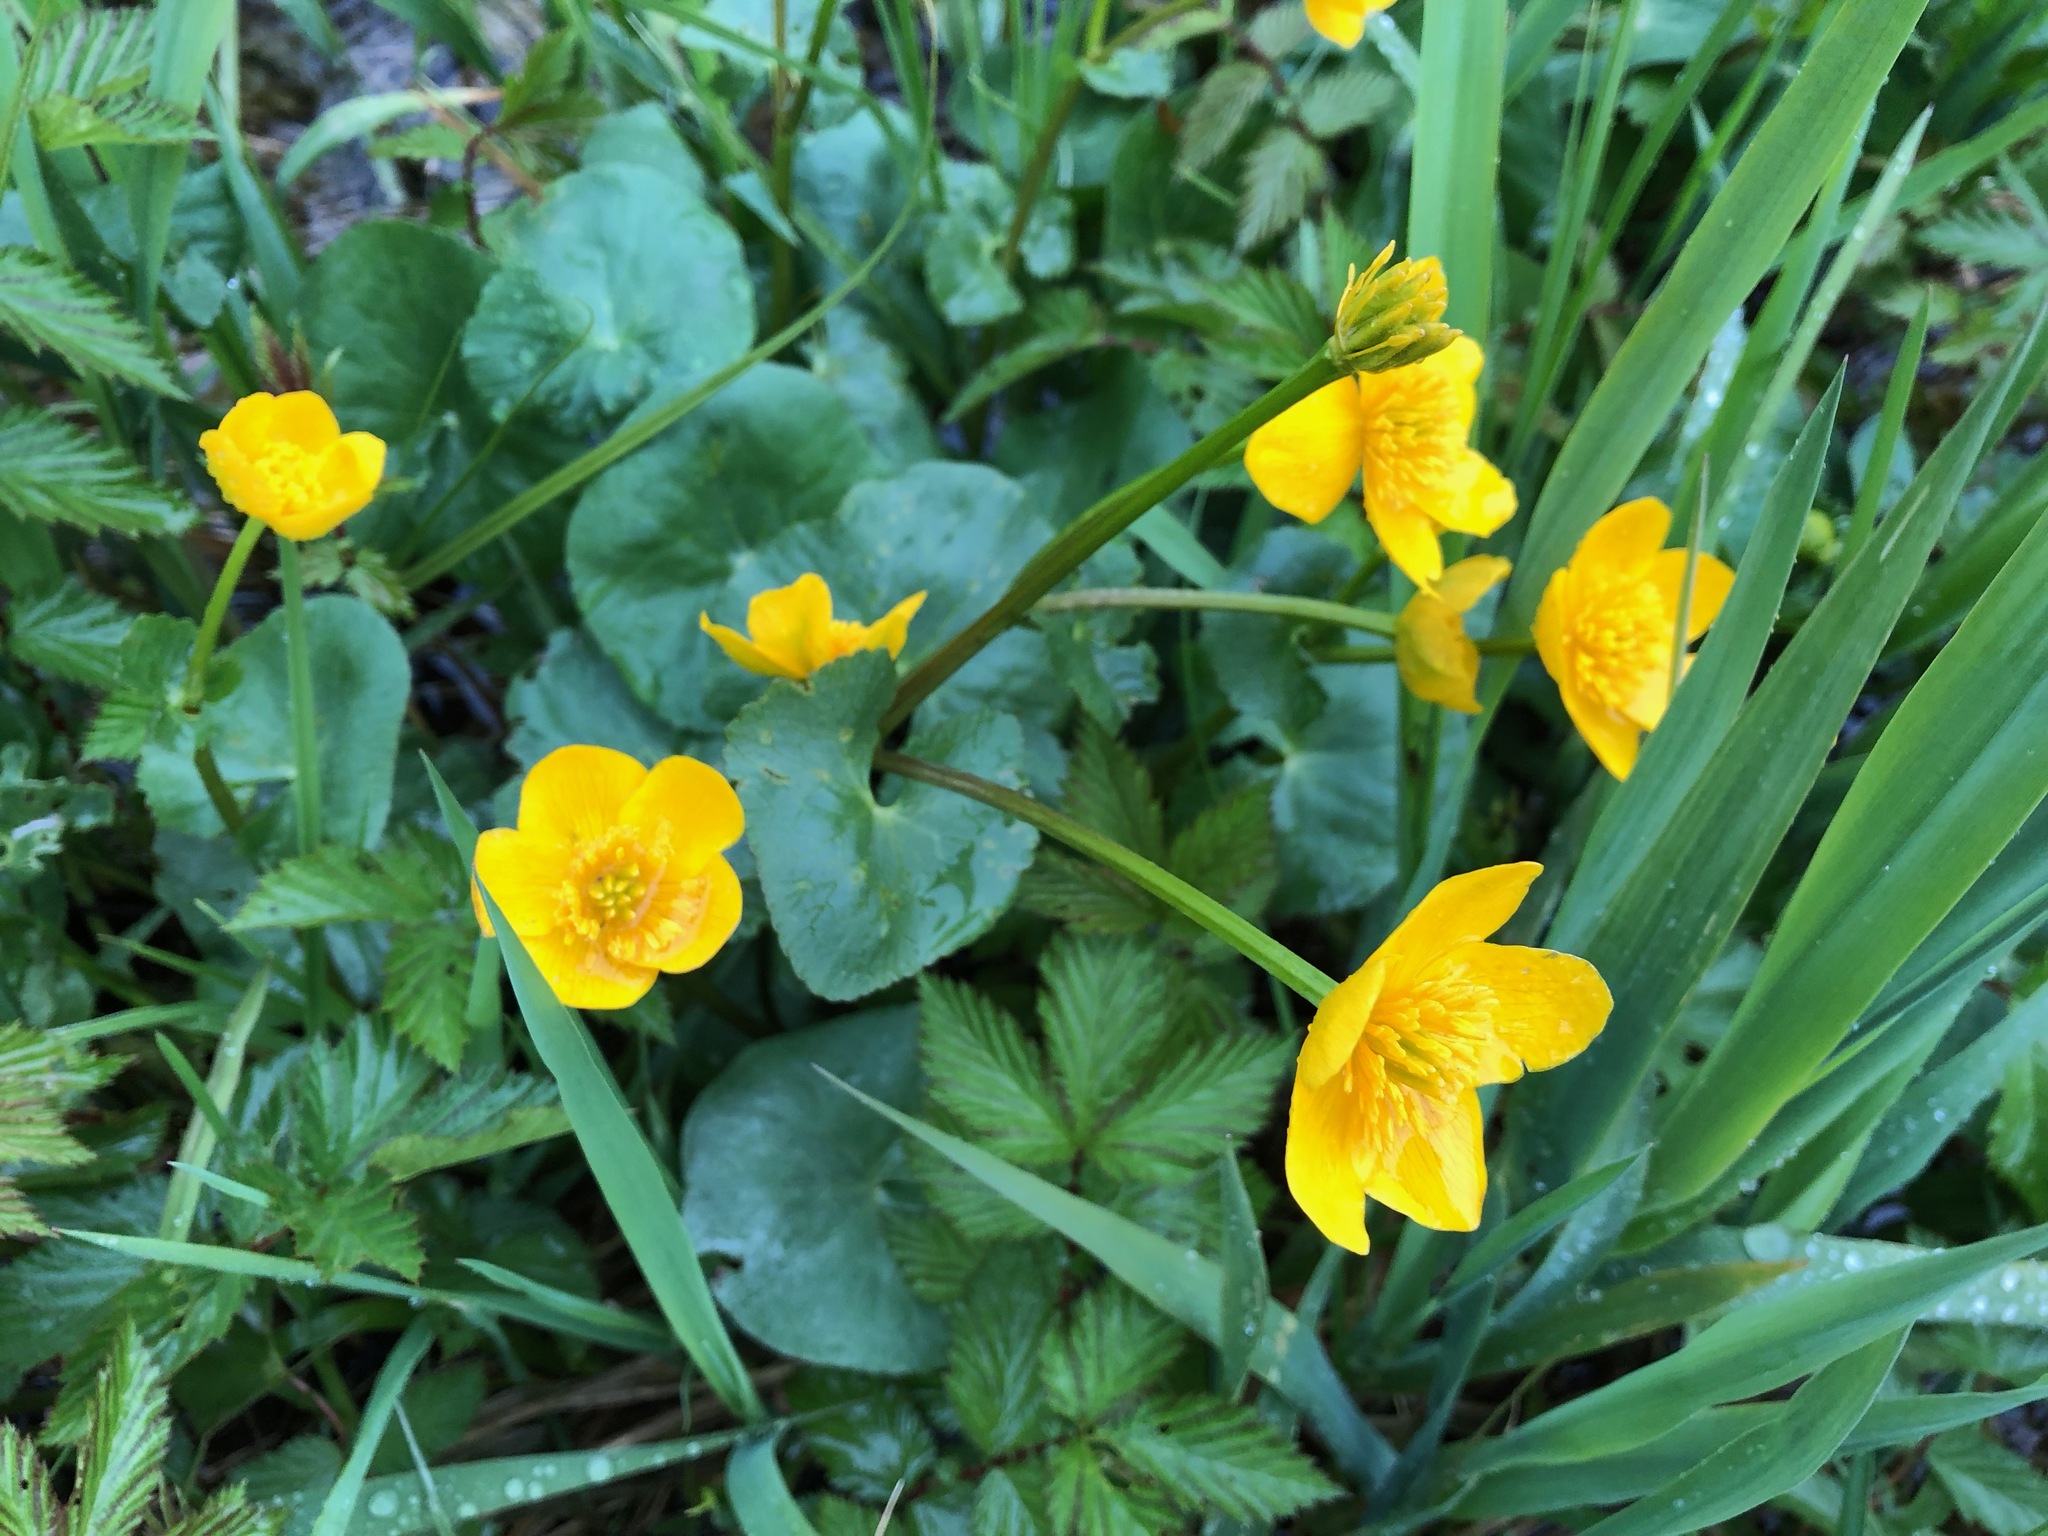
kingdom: Plantae
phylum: Tracheophyta
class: Magnoliopsida
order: Ranunculales
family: Ranunculaceae
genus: Caltha
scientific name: Caltha palustris
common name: Marsh marigold
